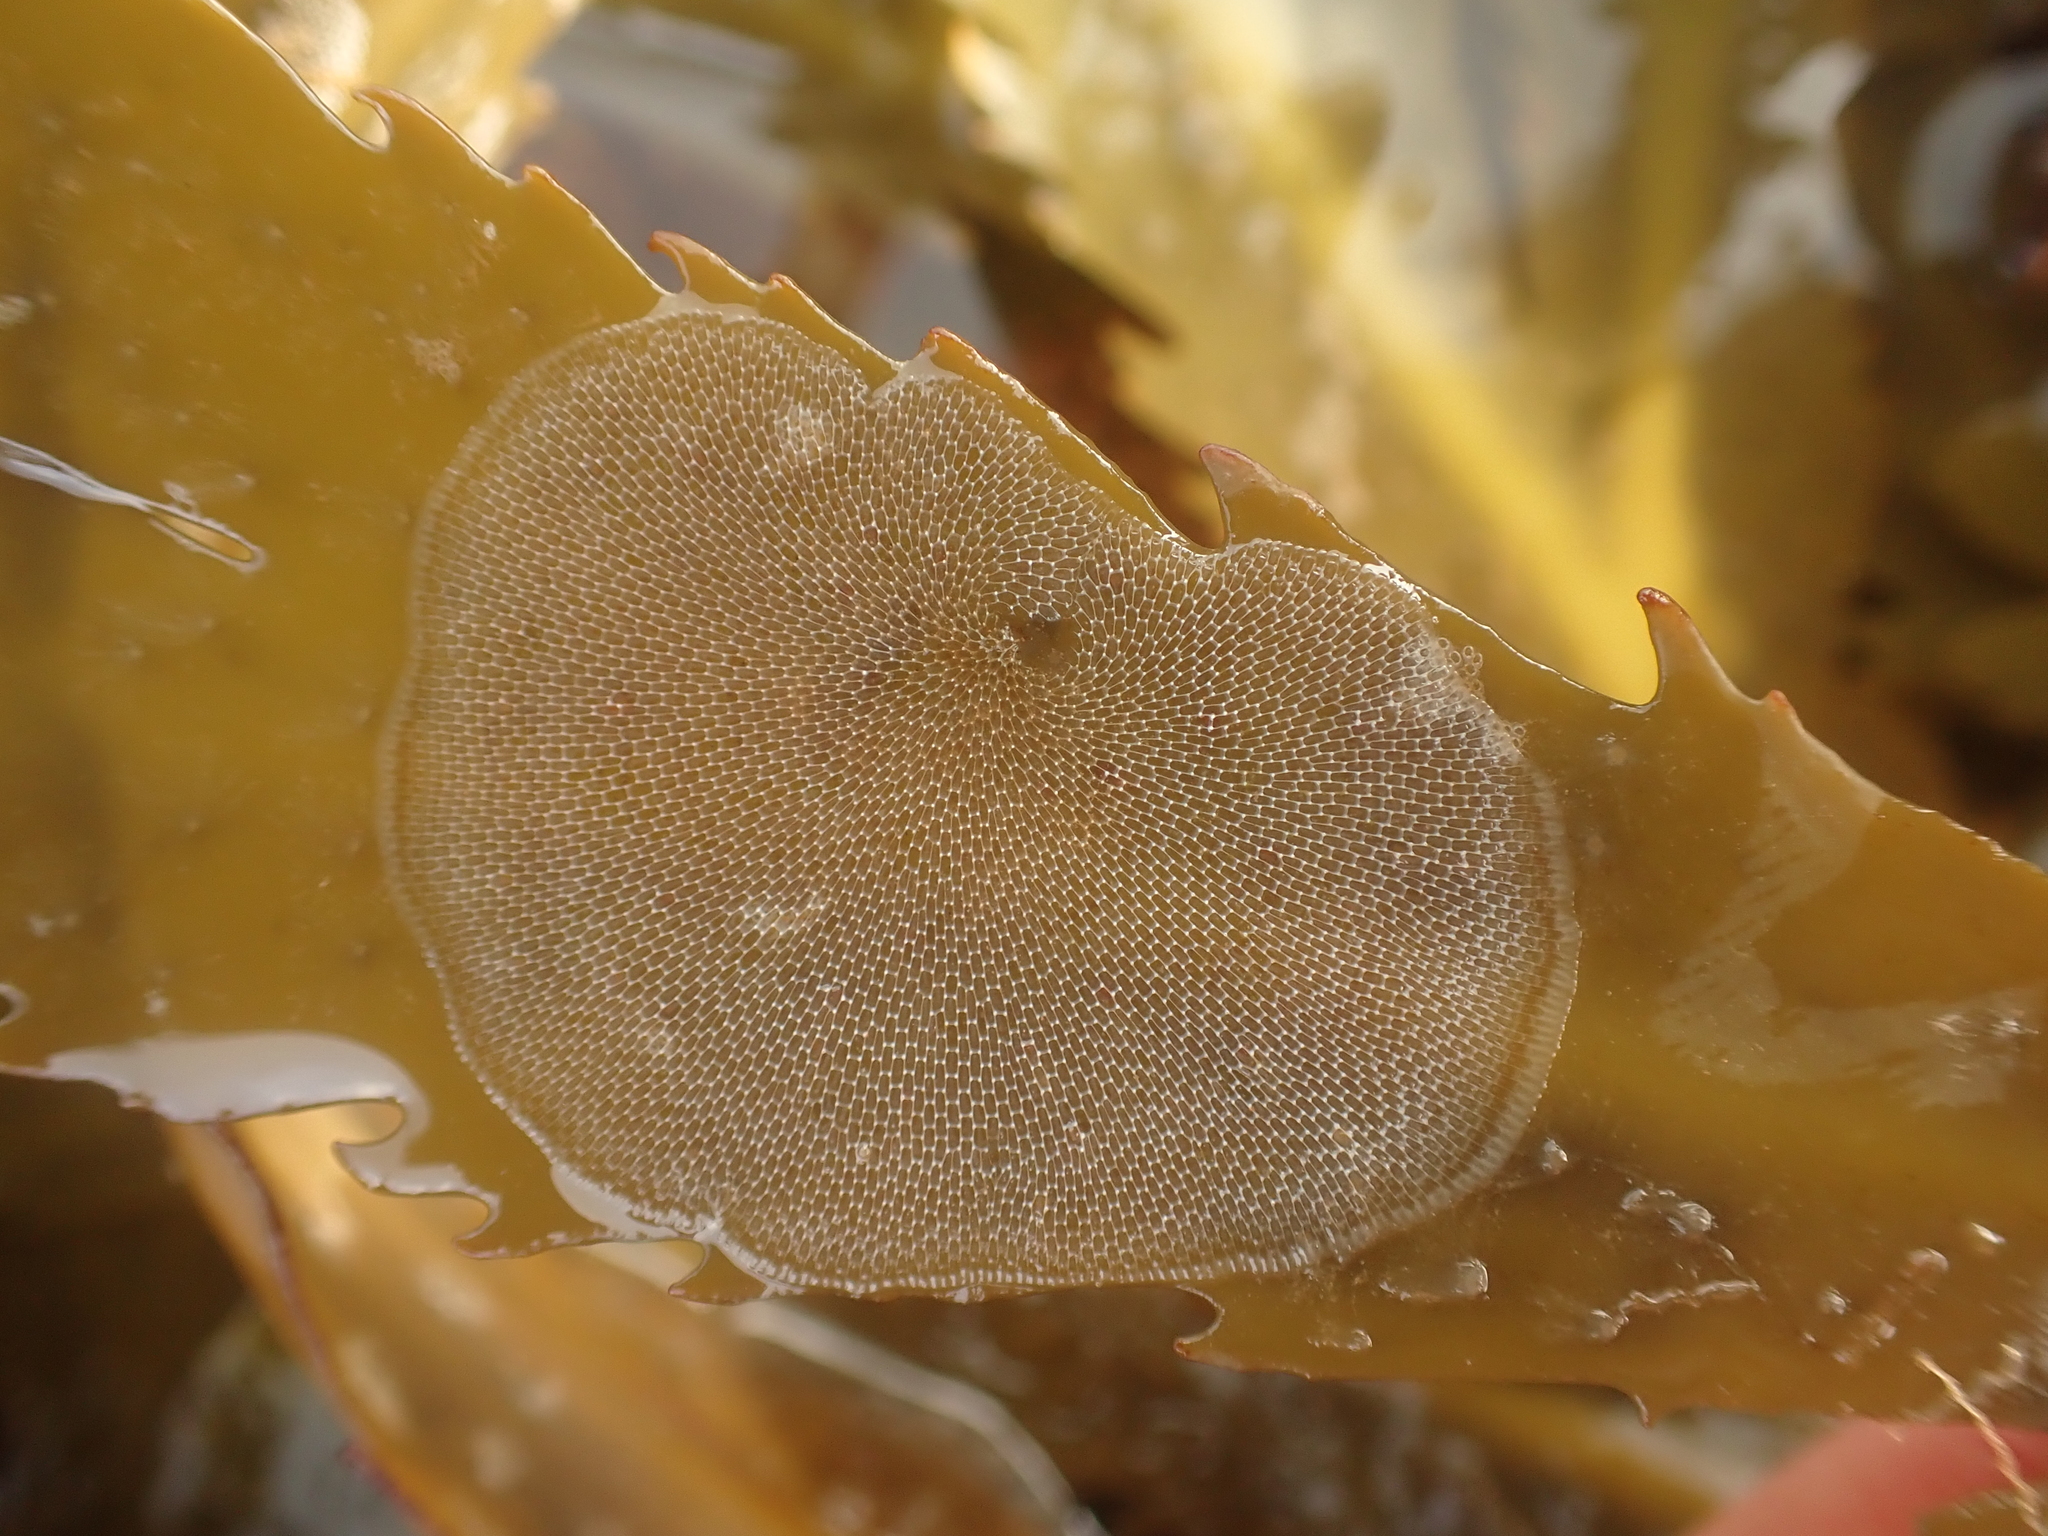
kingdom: Animalia
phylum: Bryozoa
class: Gymnolaemata
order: Cheilostomatida
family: Membraniporidae
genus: Membranipora
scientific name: Membranipora membranacea
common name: Sea mat
